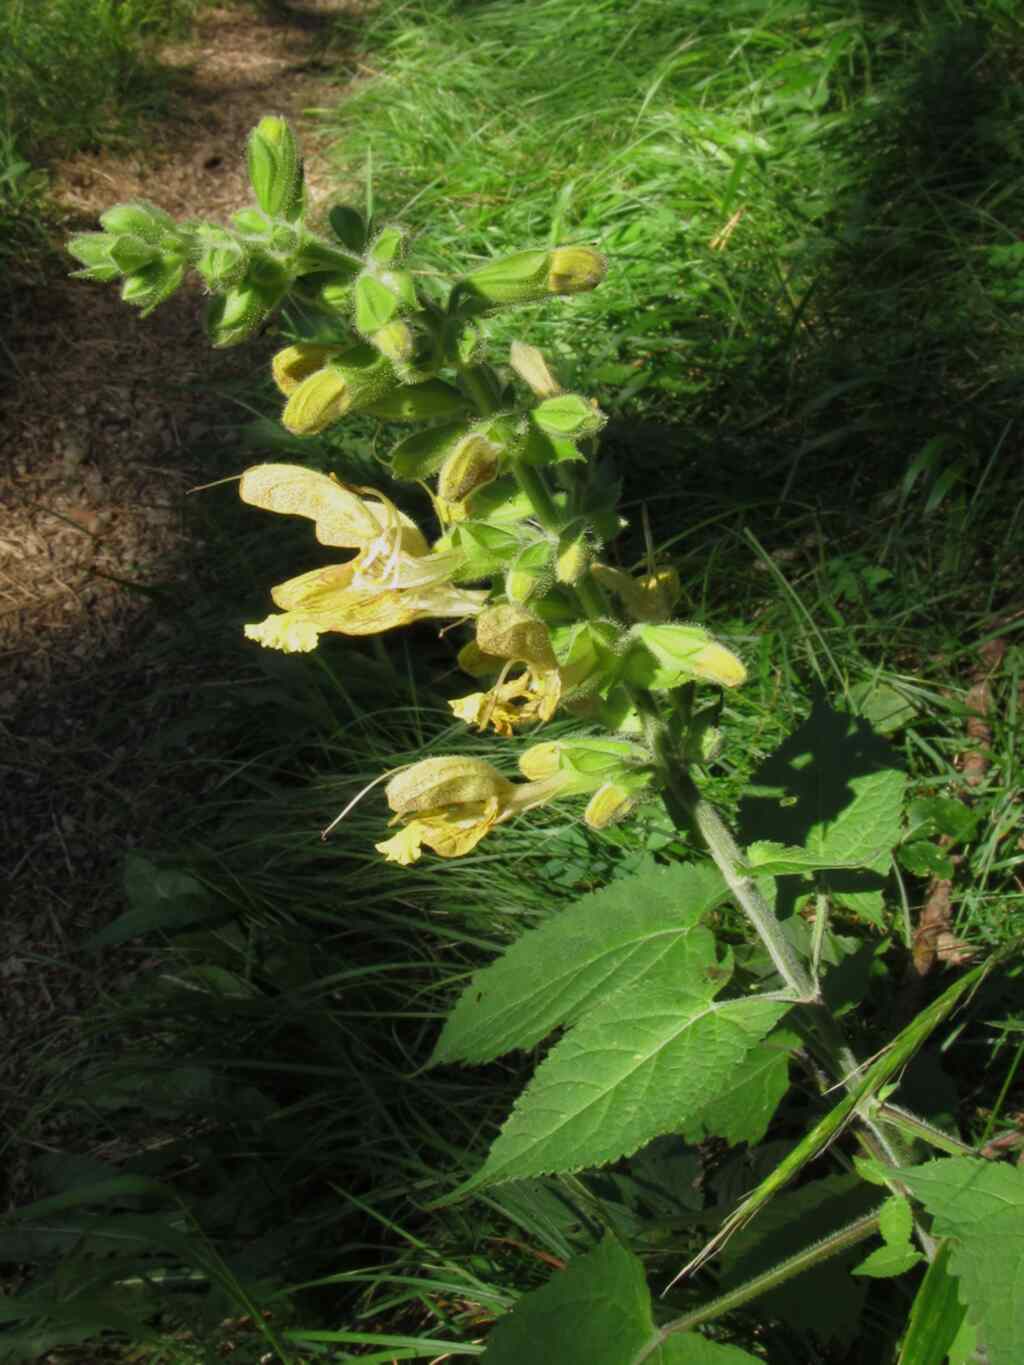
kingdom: Plantae
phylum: Tracheophyta
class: Magnoliopsida
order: Lamiales
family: Lamiaceae
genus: Salvia
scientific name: Salvia glutinosa
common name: Sticky clary
